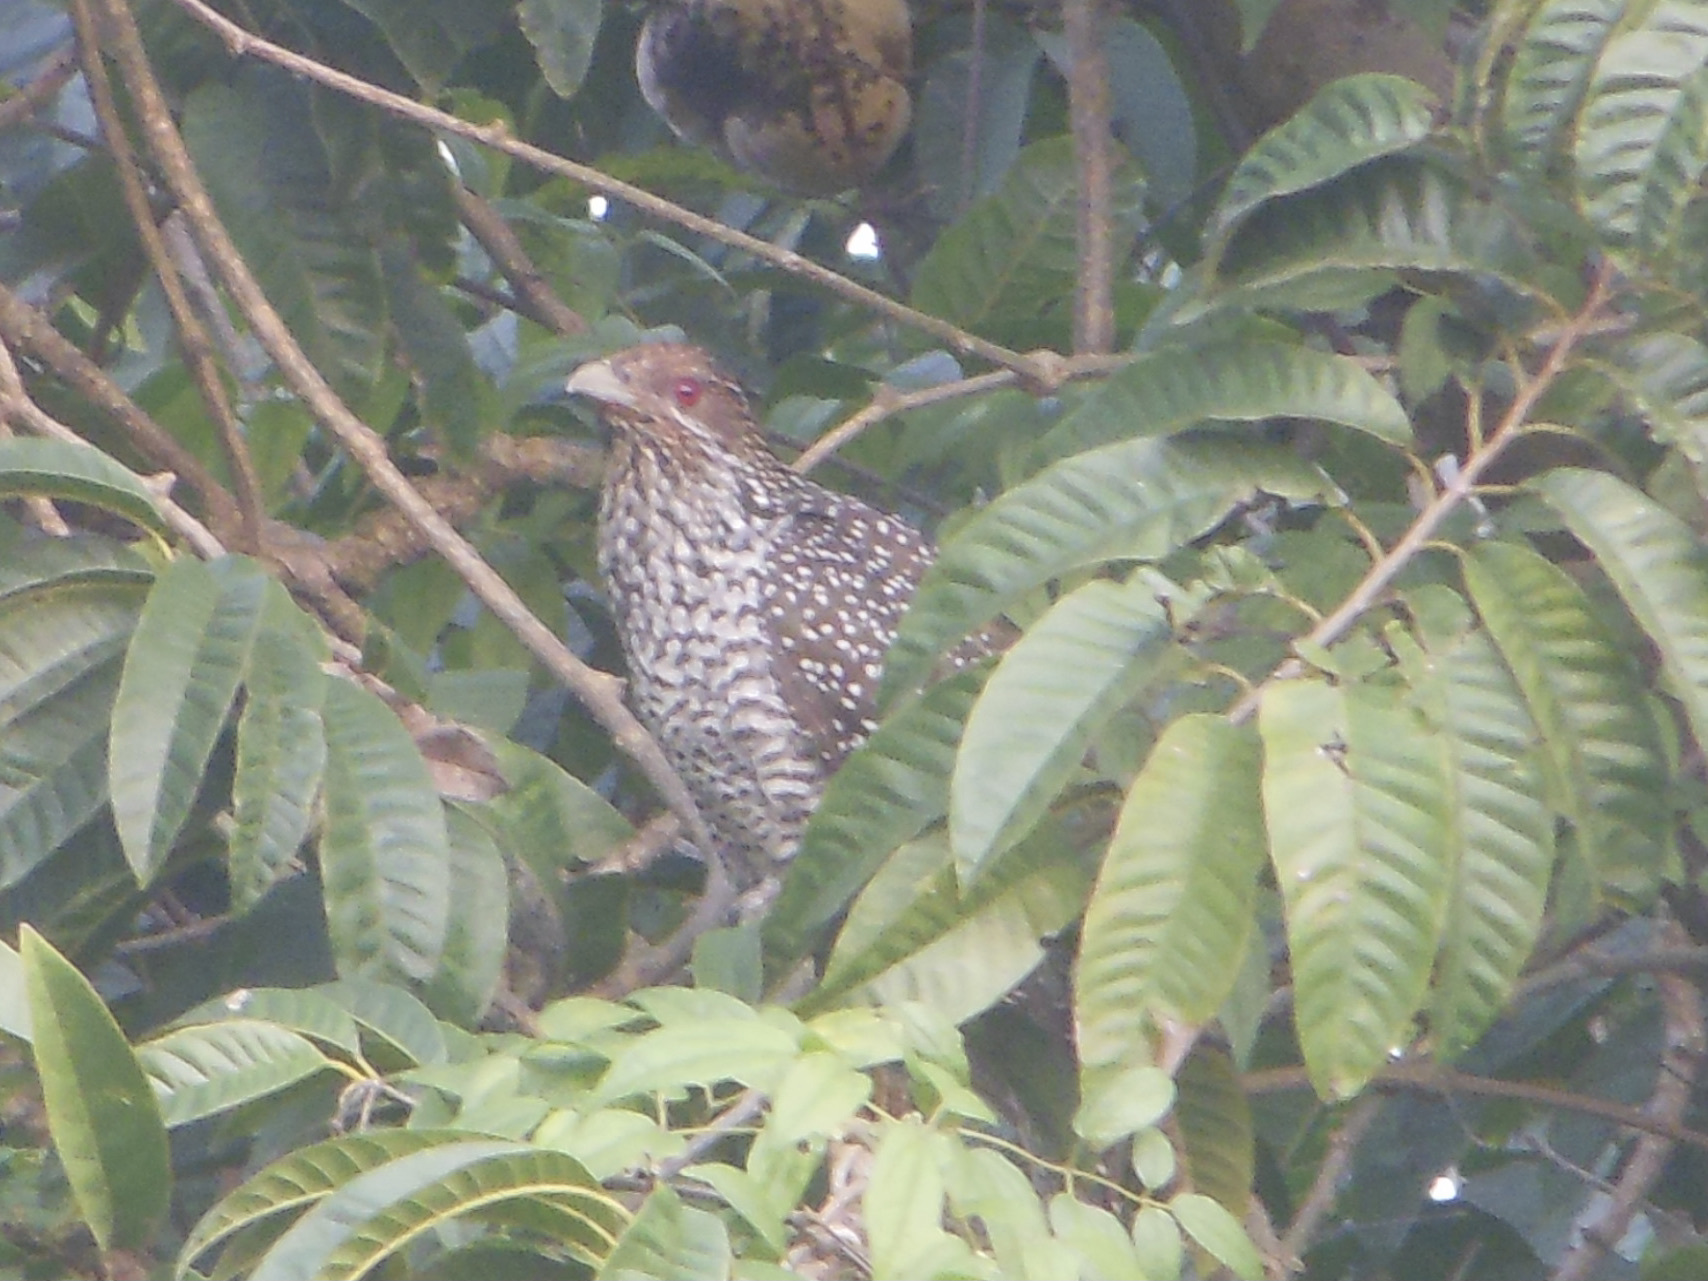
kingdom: Animalia
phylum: Chordata
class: Aves
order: Cuculiformes
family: Cuculidae
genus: Eudynamys
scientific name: Eudynamys scolopaceus
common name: Asian koel
